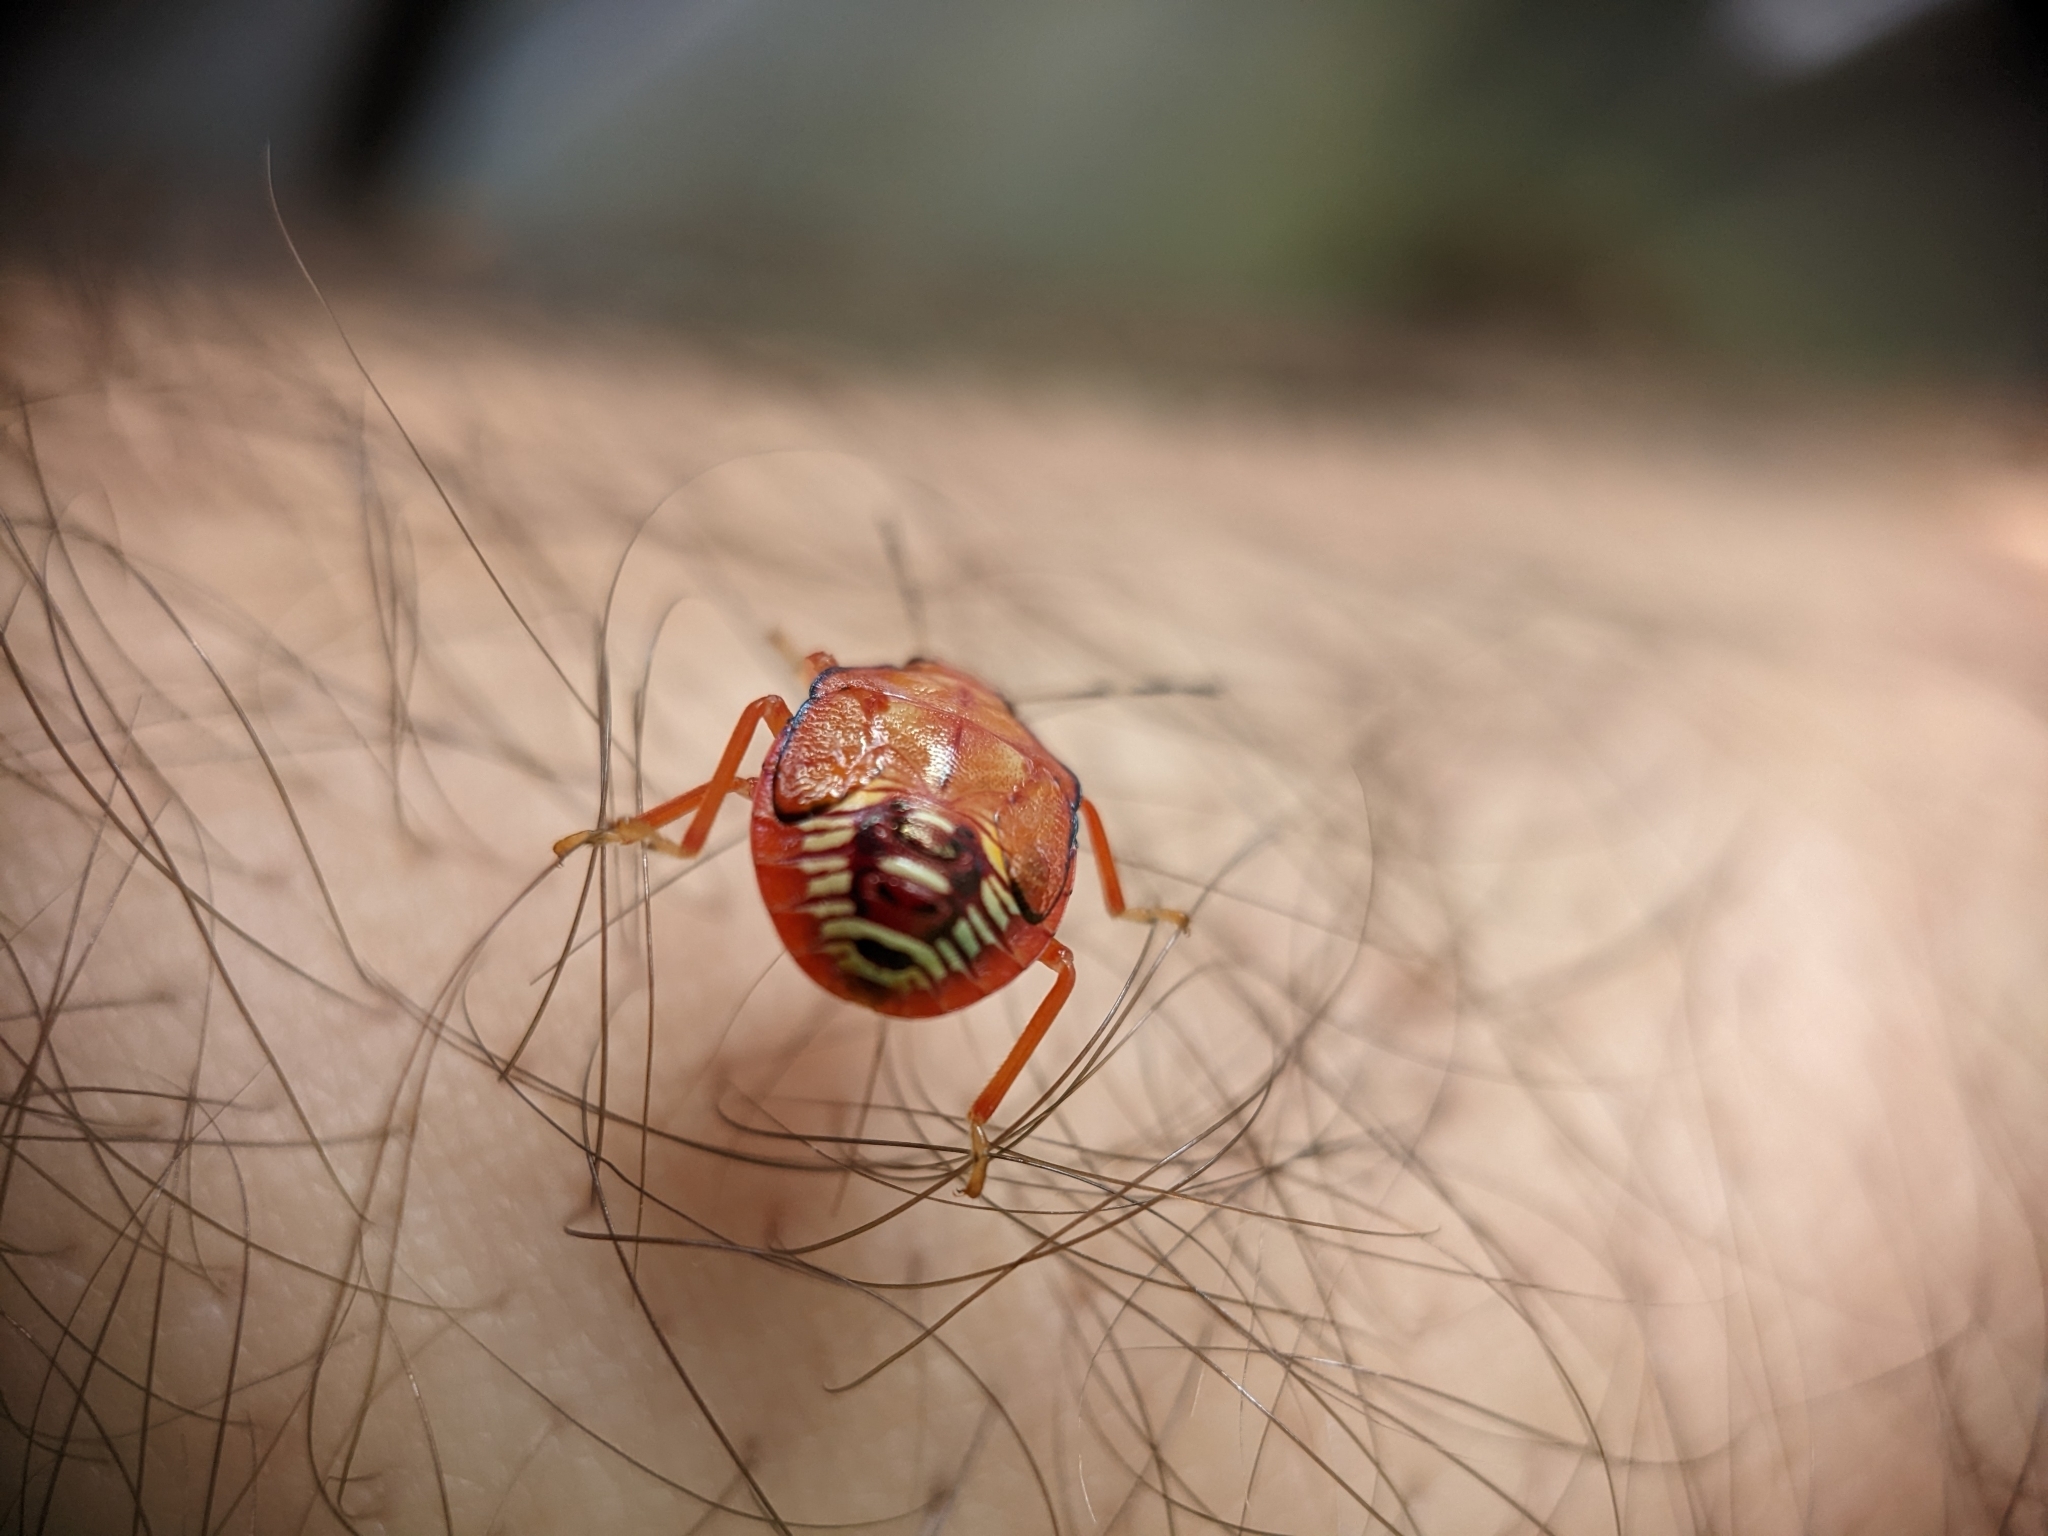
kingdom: Animalia
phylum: Arthropoda
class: Insecta
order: Hemiptera
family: Pentatomidae
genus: Podisus
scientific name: Podisus
